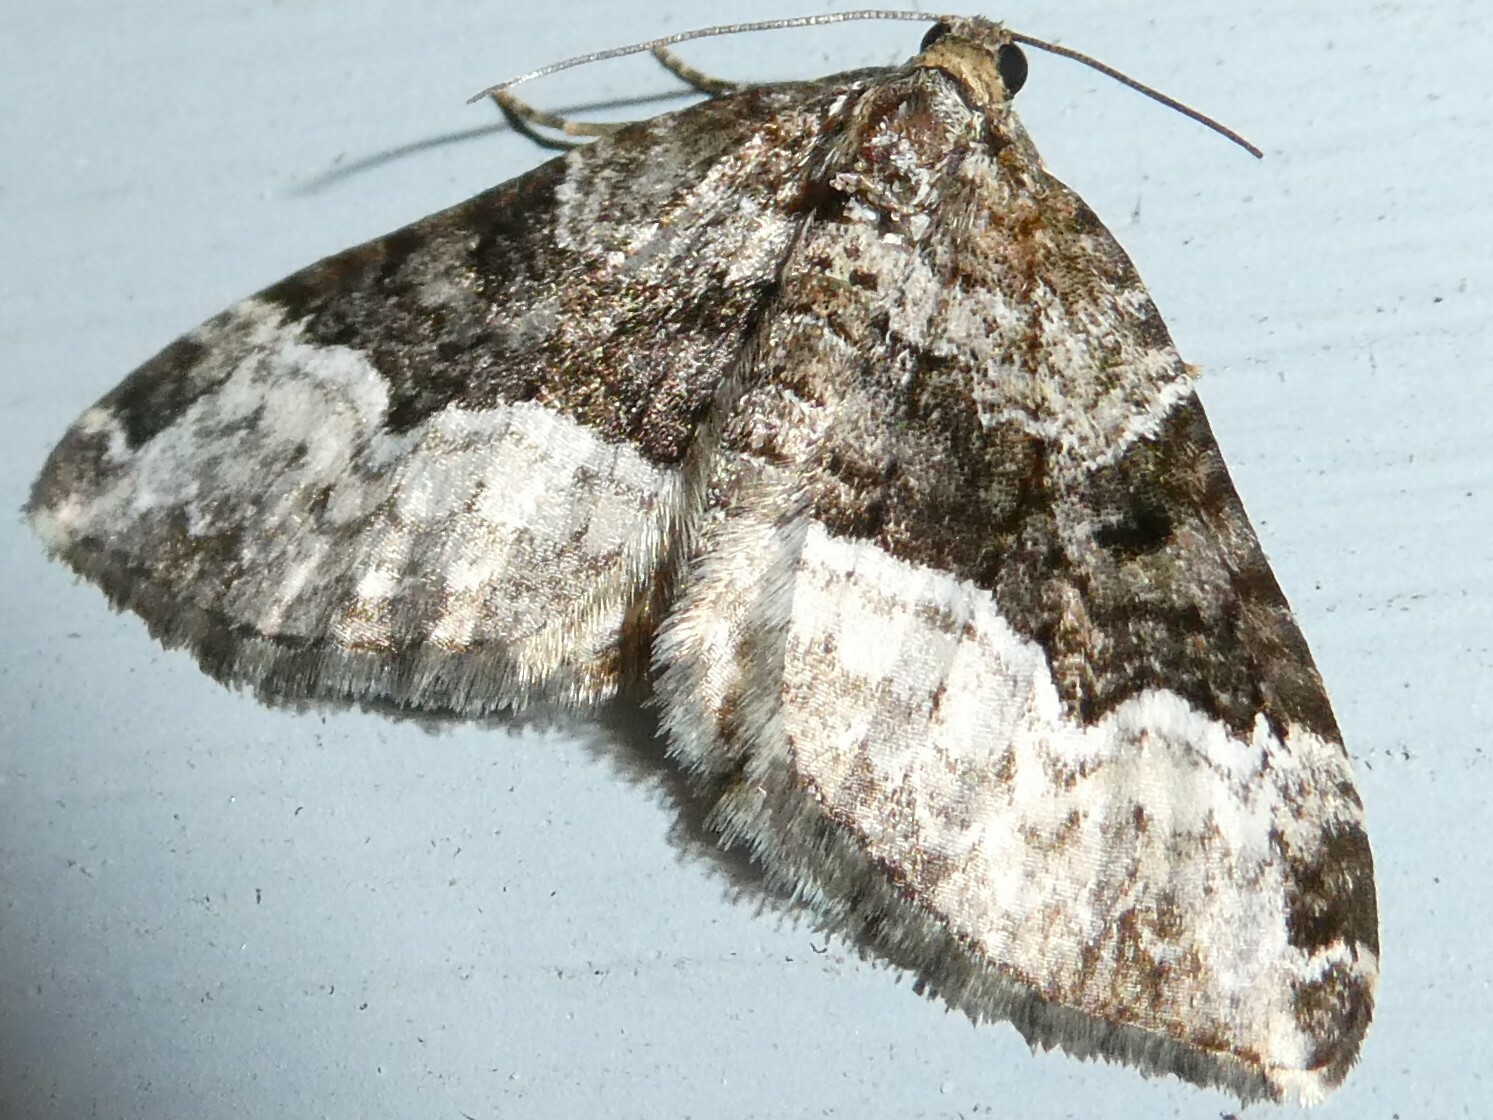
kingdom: Animalia
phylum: Arthropoda
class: Insecta
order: Lepidoptera
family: Geometridae
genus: Euphyia
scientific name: Euphyia intermediata
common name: Sharp-angled carpet
